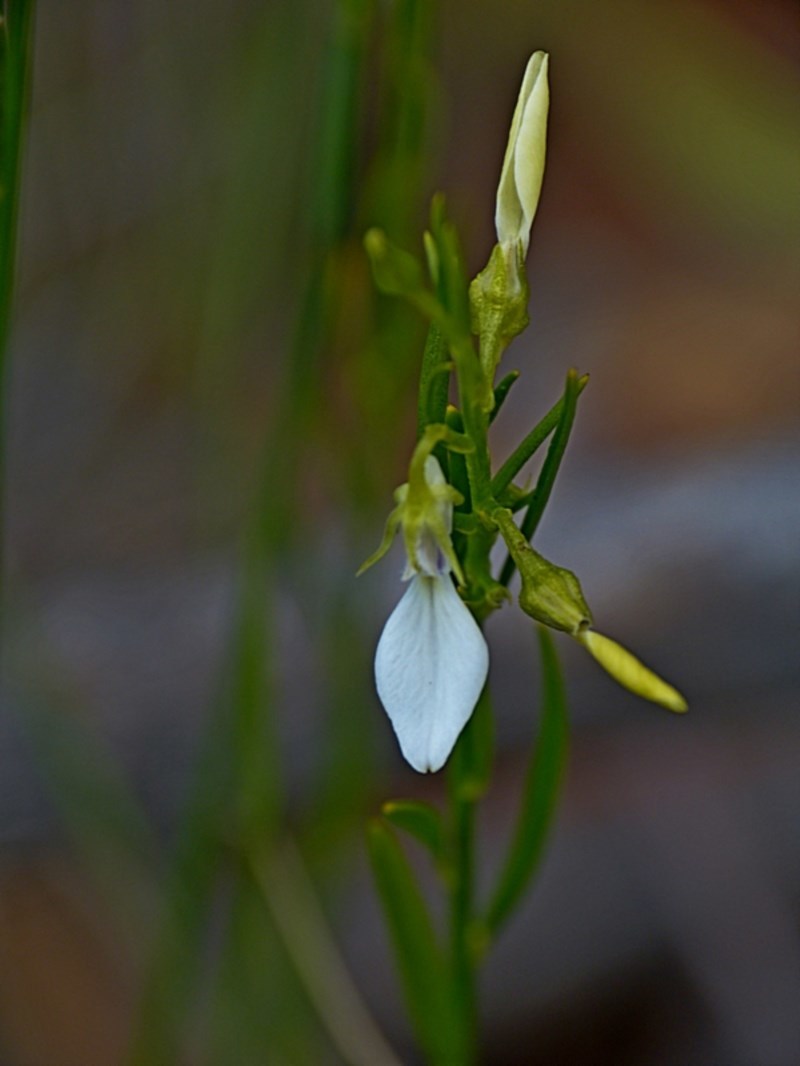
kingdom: Plantae
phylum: Tracheophyta
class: Magnoliopsida
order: Malpighiales
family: Violaceae
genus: Pigea
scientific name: Pigea vernonii
